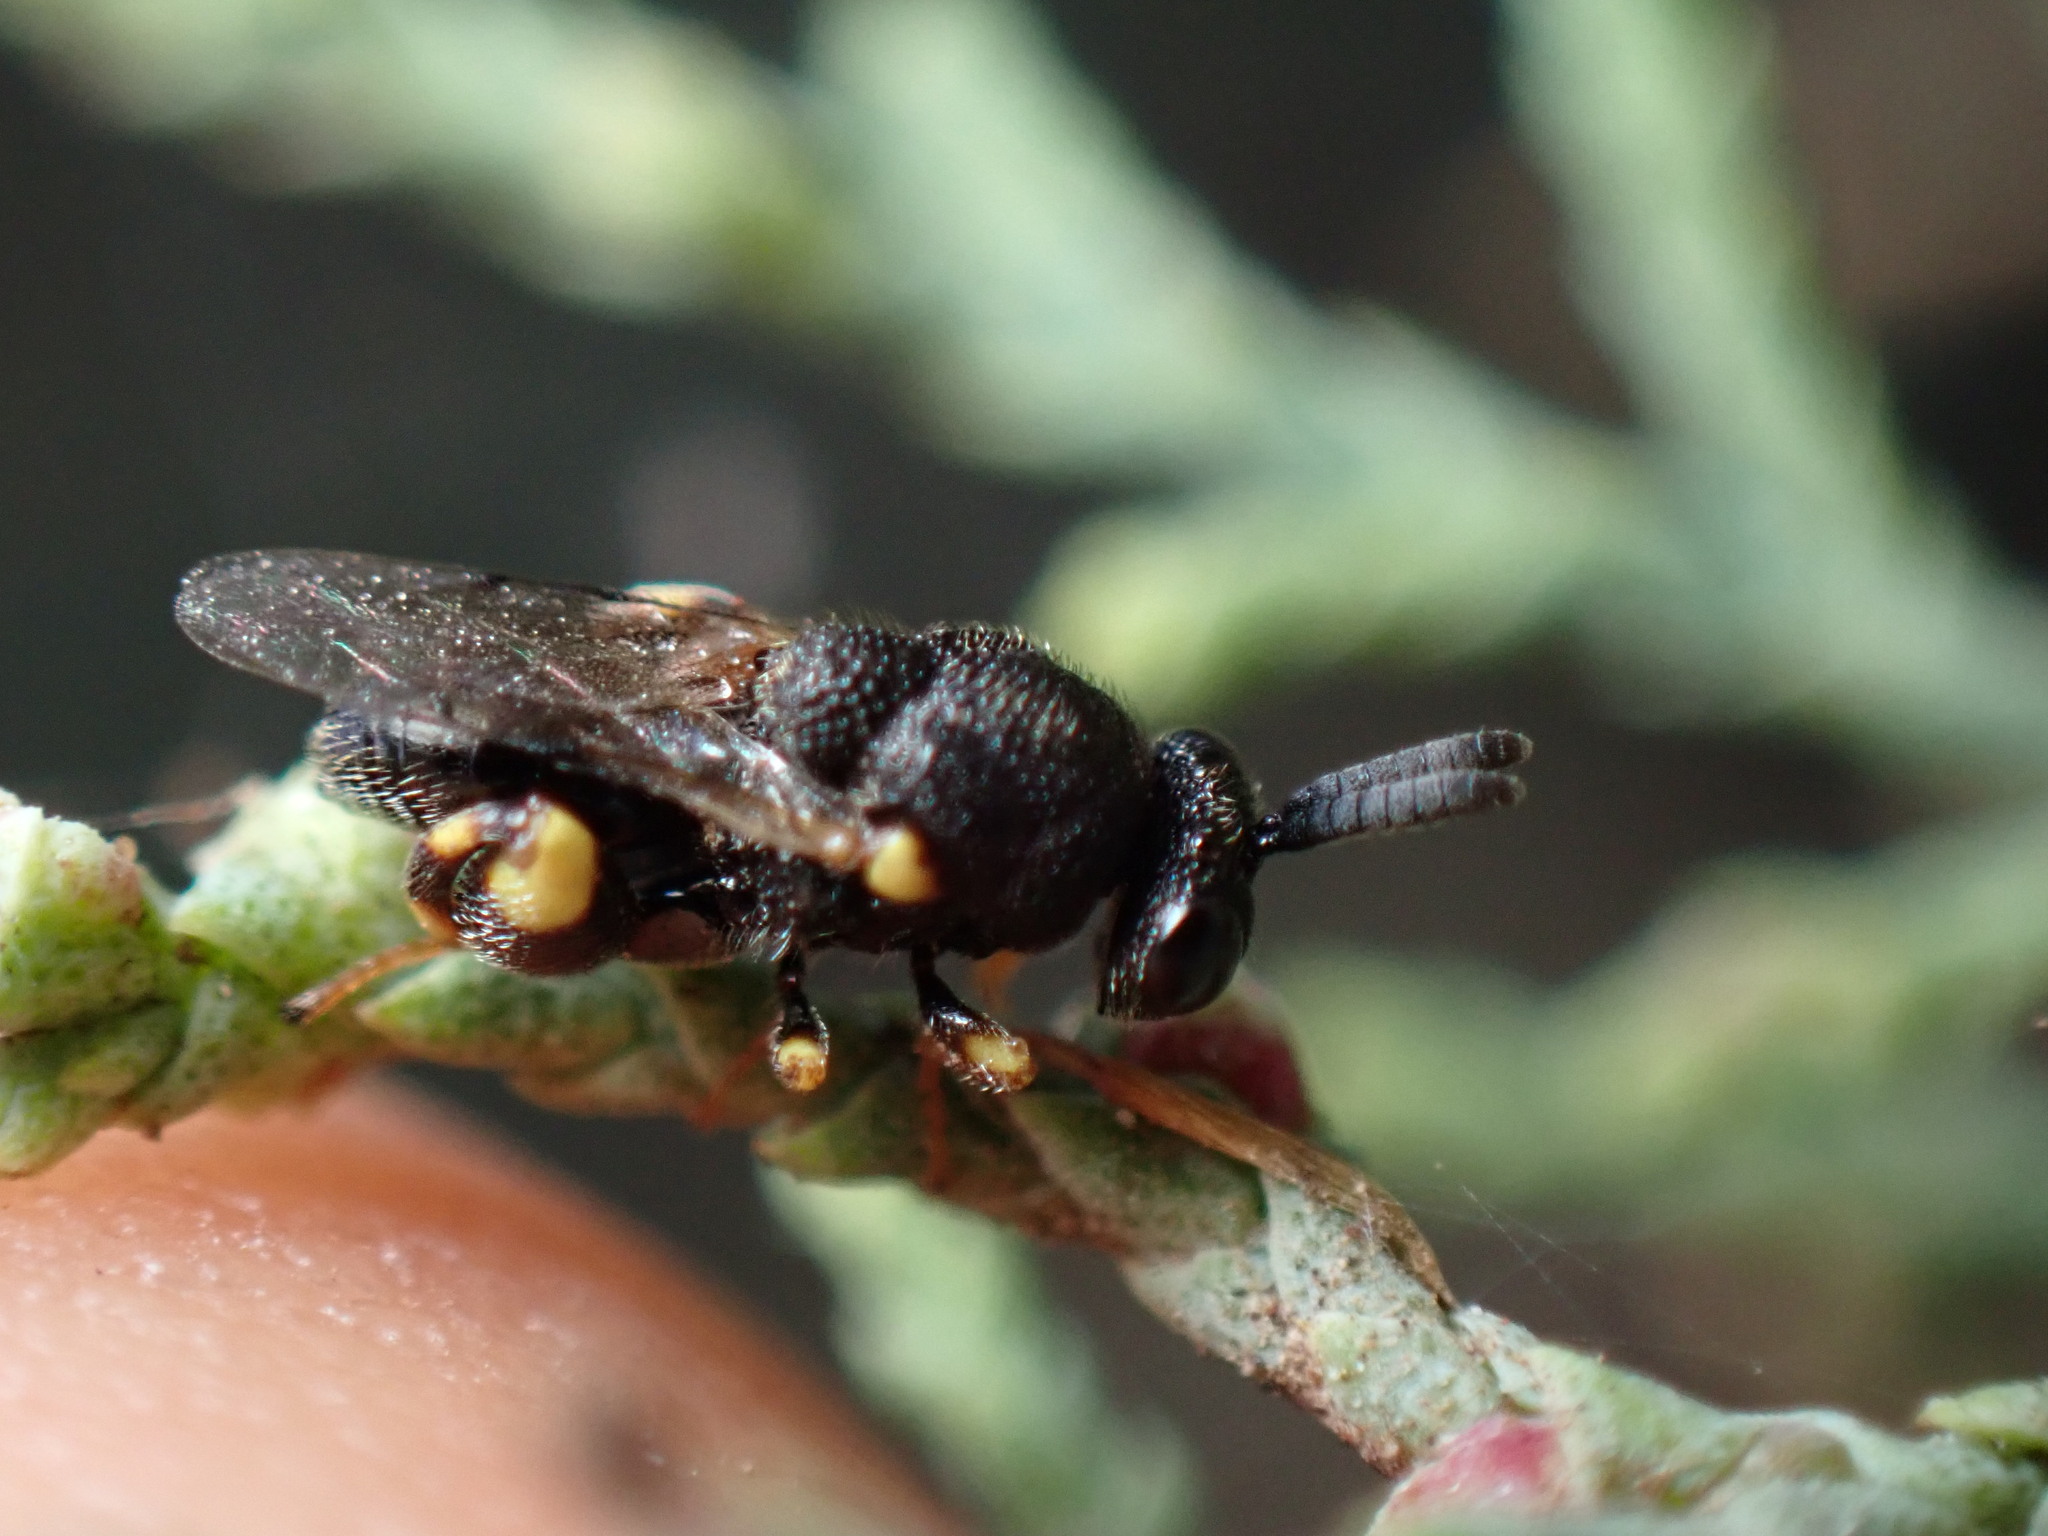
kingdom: Animalia
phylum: Arthropoda
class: Insecta
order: Hymenoptera
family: Chalcididae
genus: Brachymeria
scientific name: Brachymeria minuta
